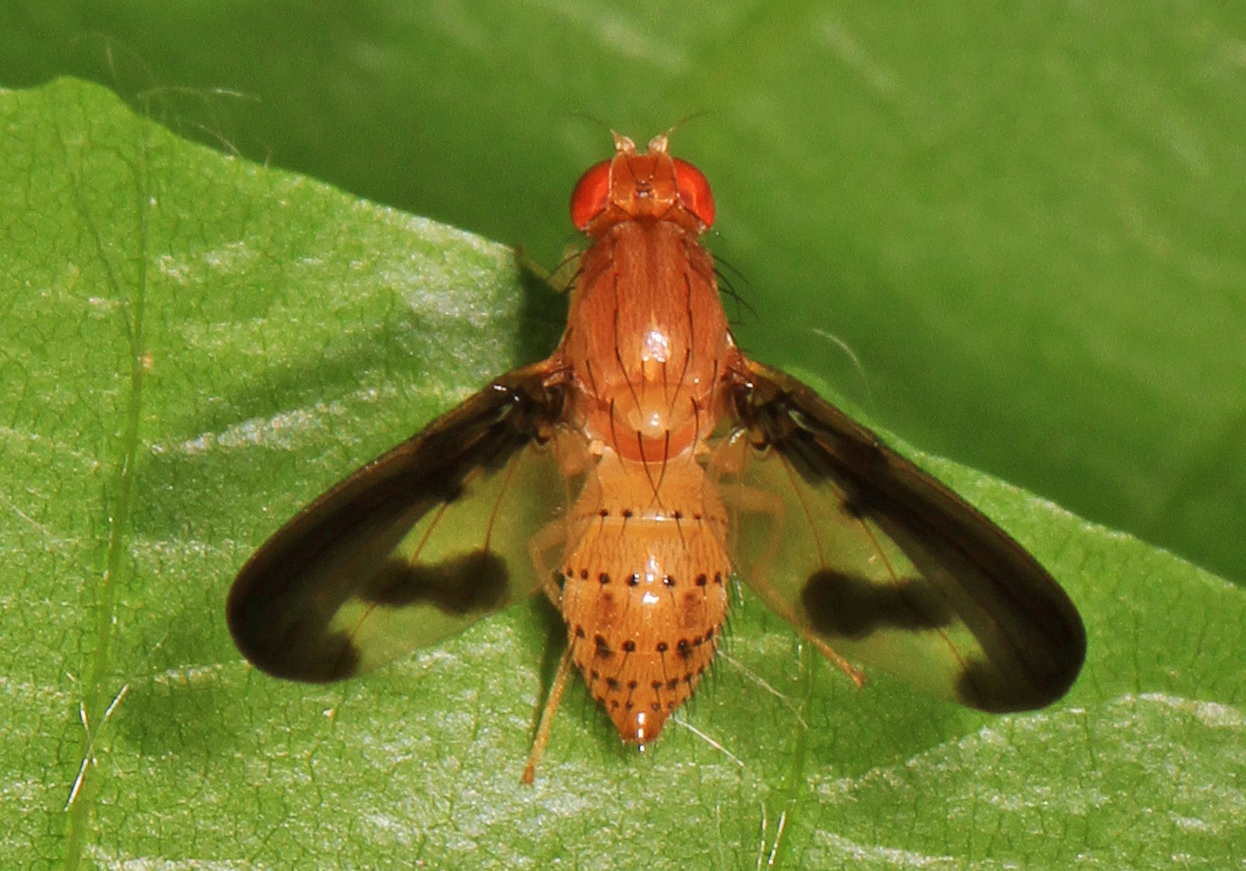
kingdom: Animalia
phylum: Arthropoda
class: Insecta
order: Diptera
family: Pallopteridae
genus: Toxonevra
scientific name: Toxonevra superba
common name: Antlered flutter fly
